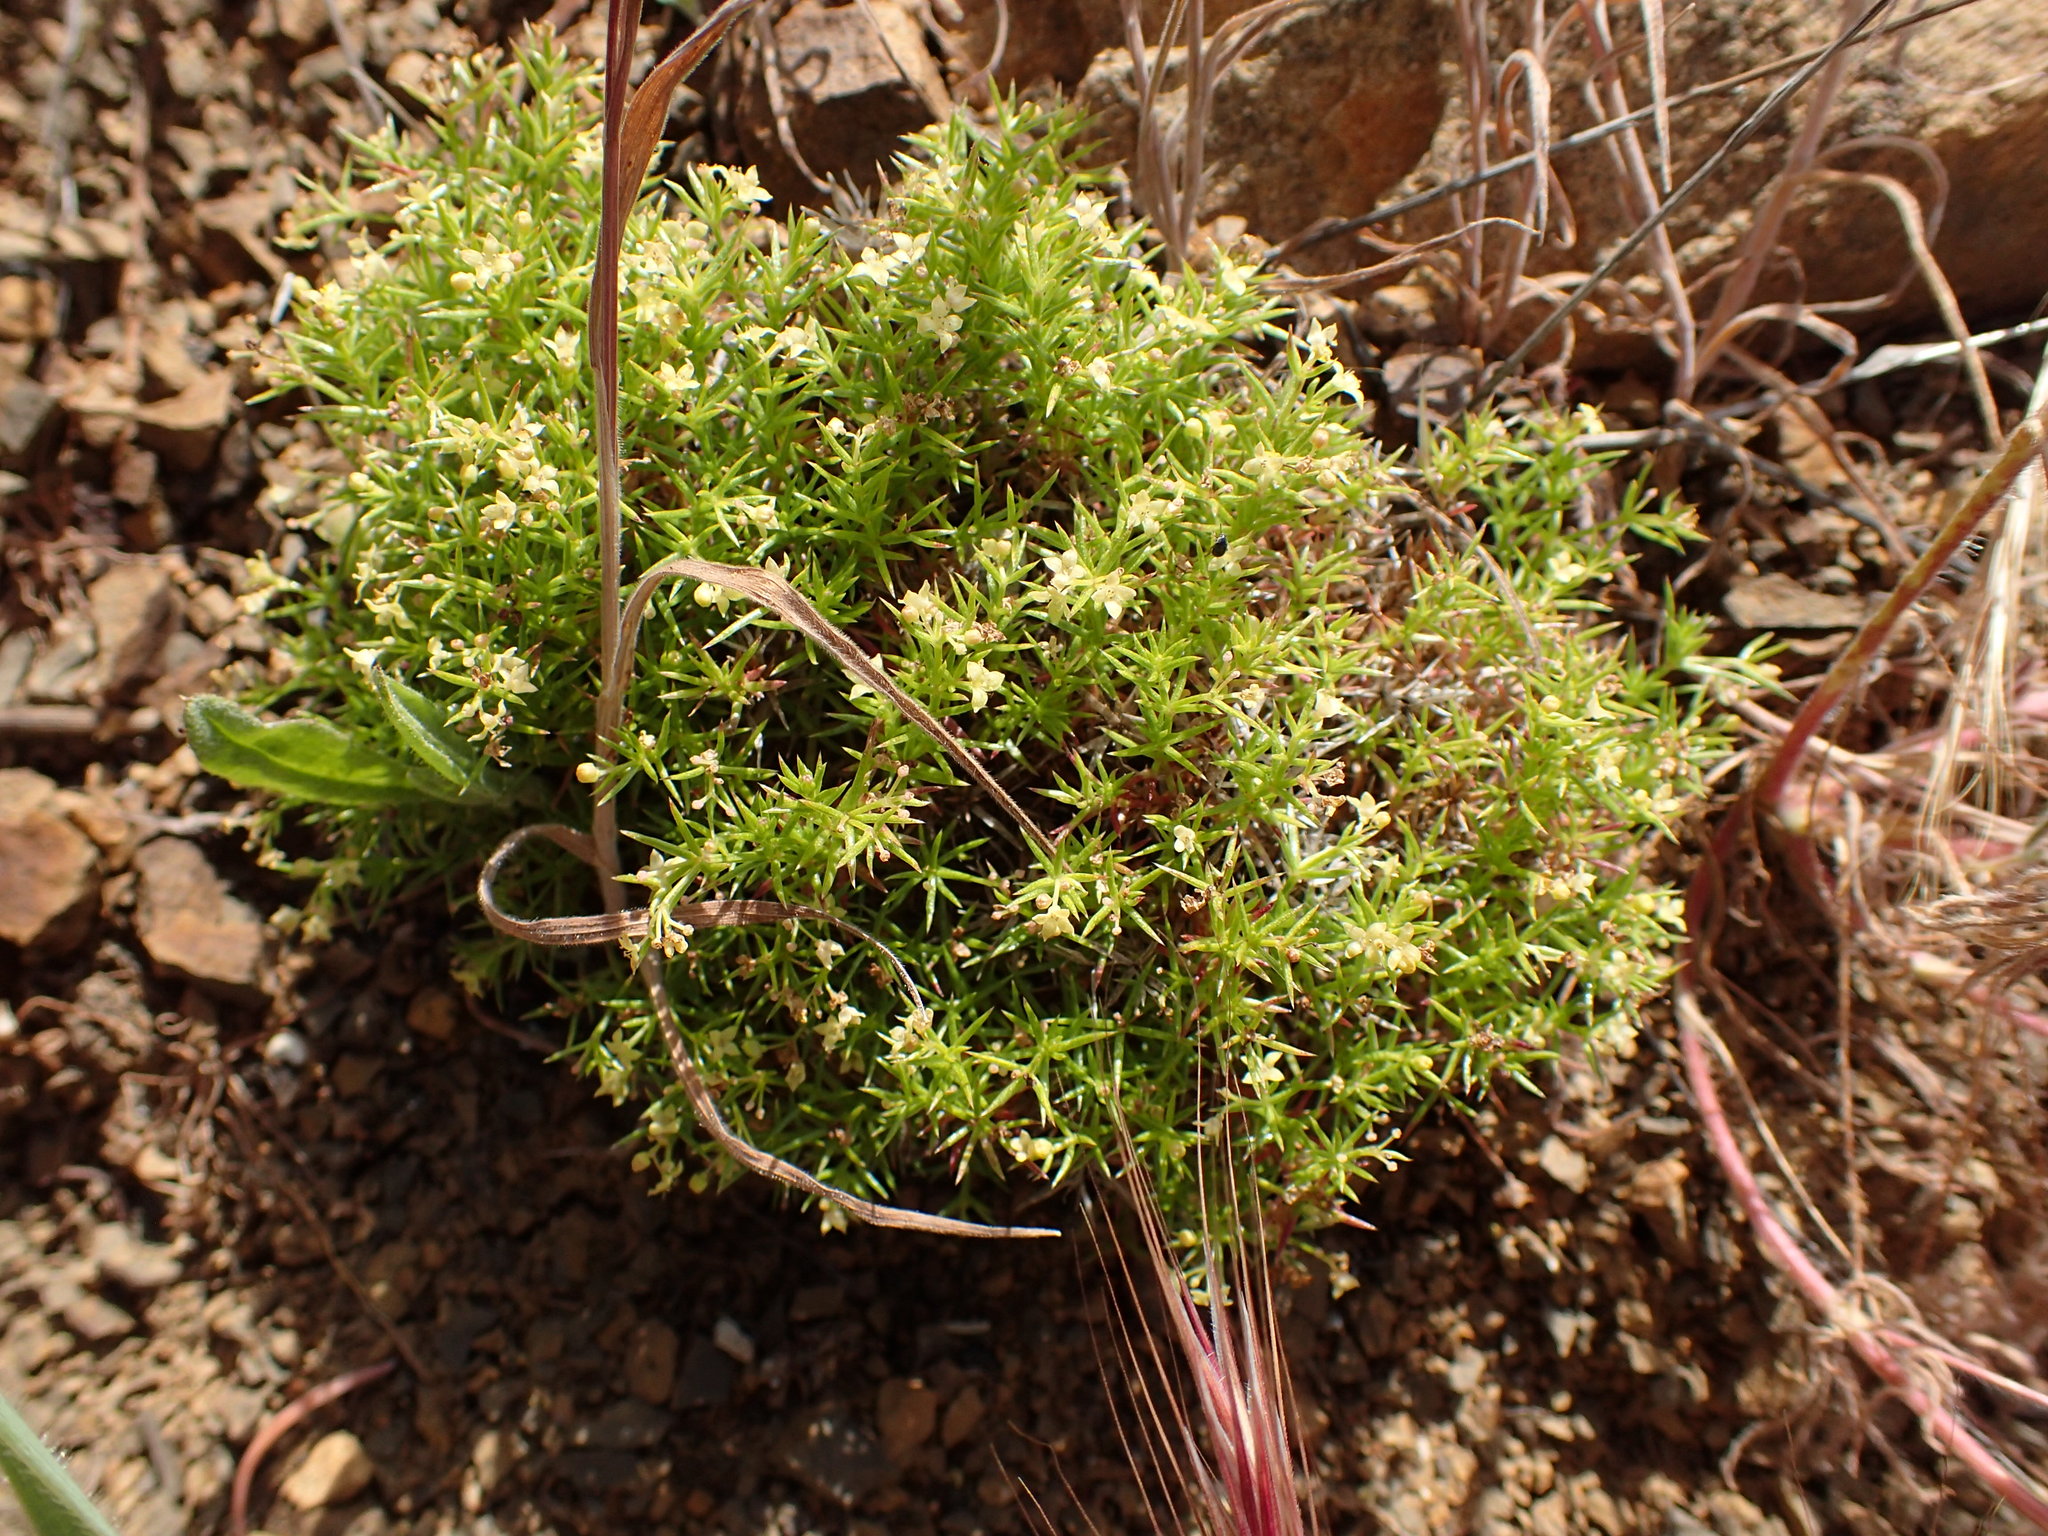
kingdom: Plantae
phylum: Tracheophyta
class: Magnoliopsida
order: Gentianales
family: Rubiaceae
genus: Galium
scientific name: Galium andrewsii
